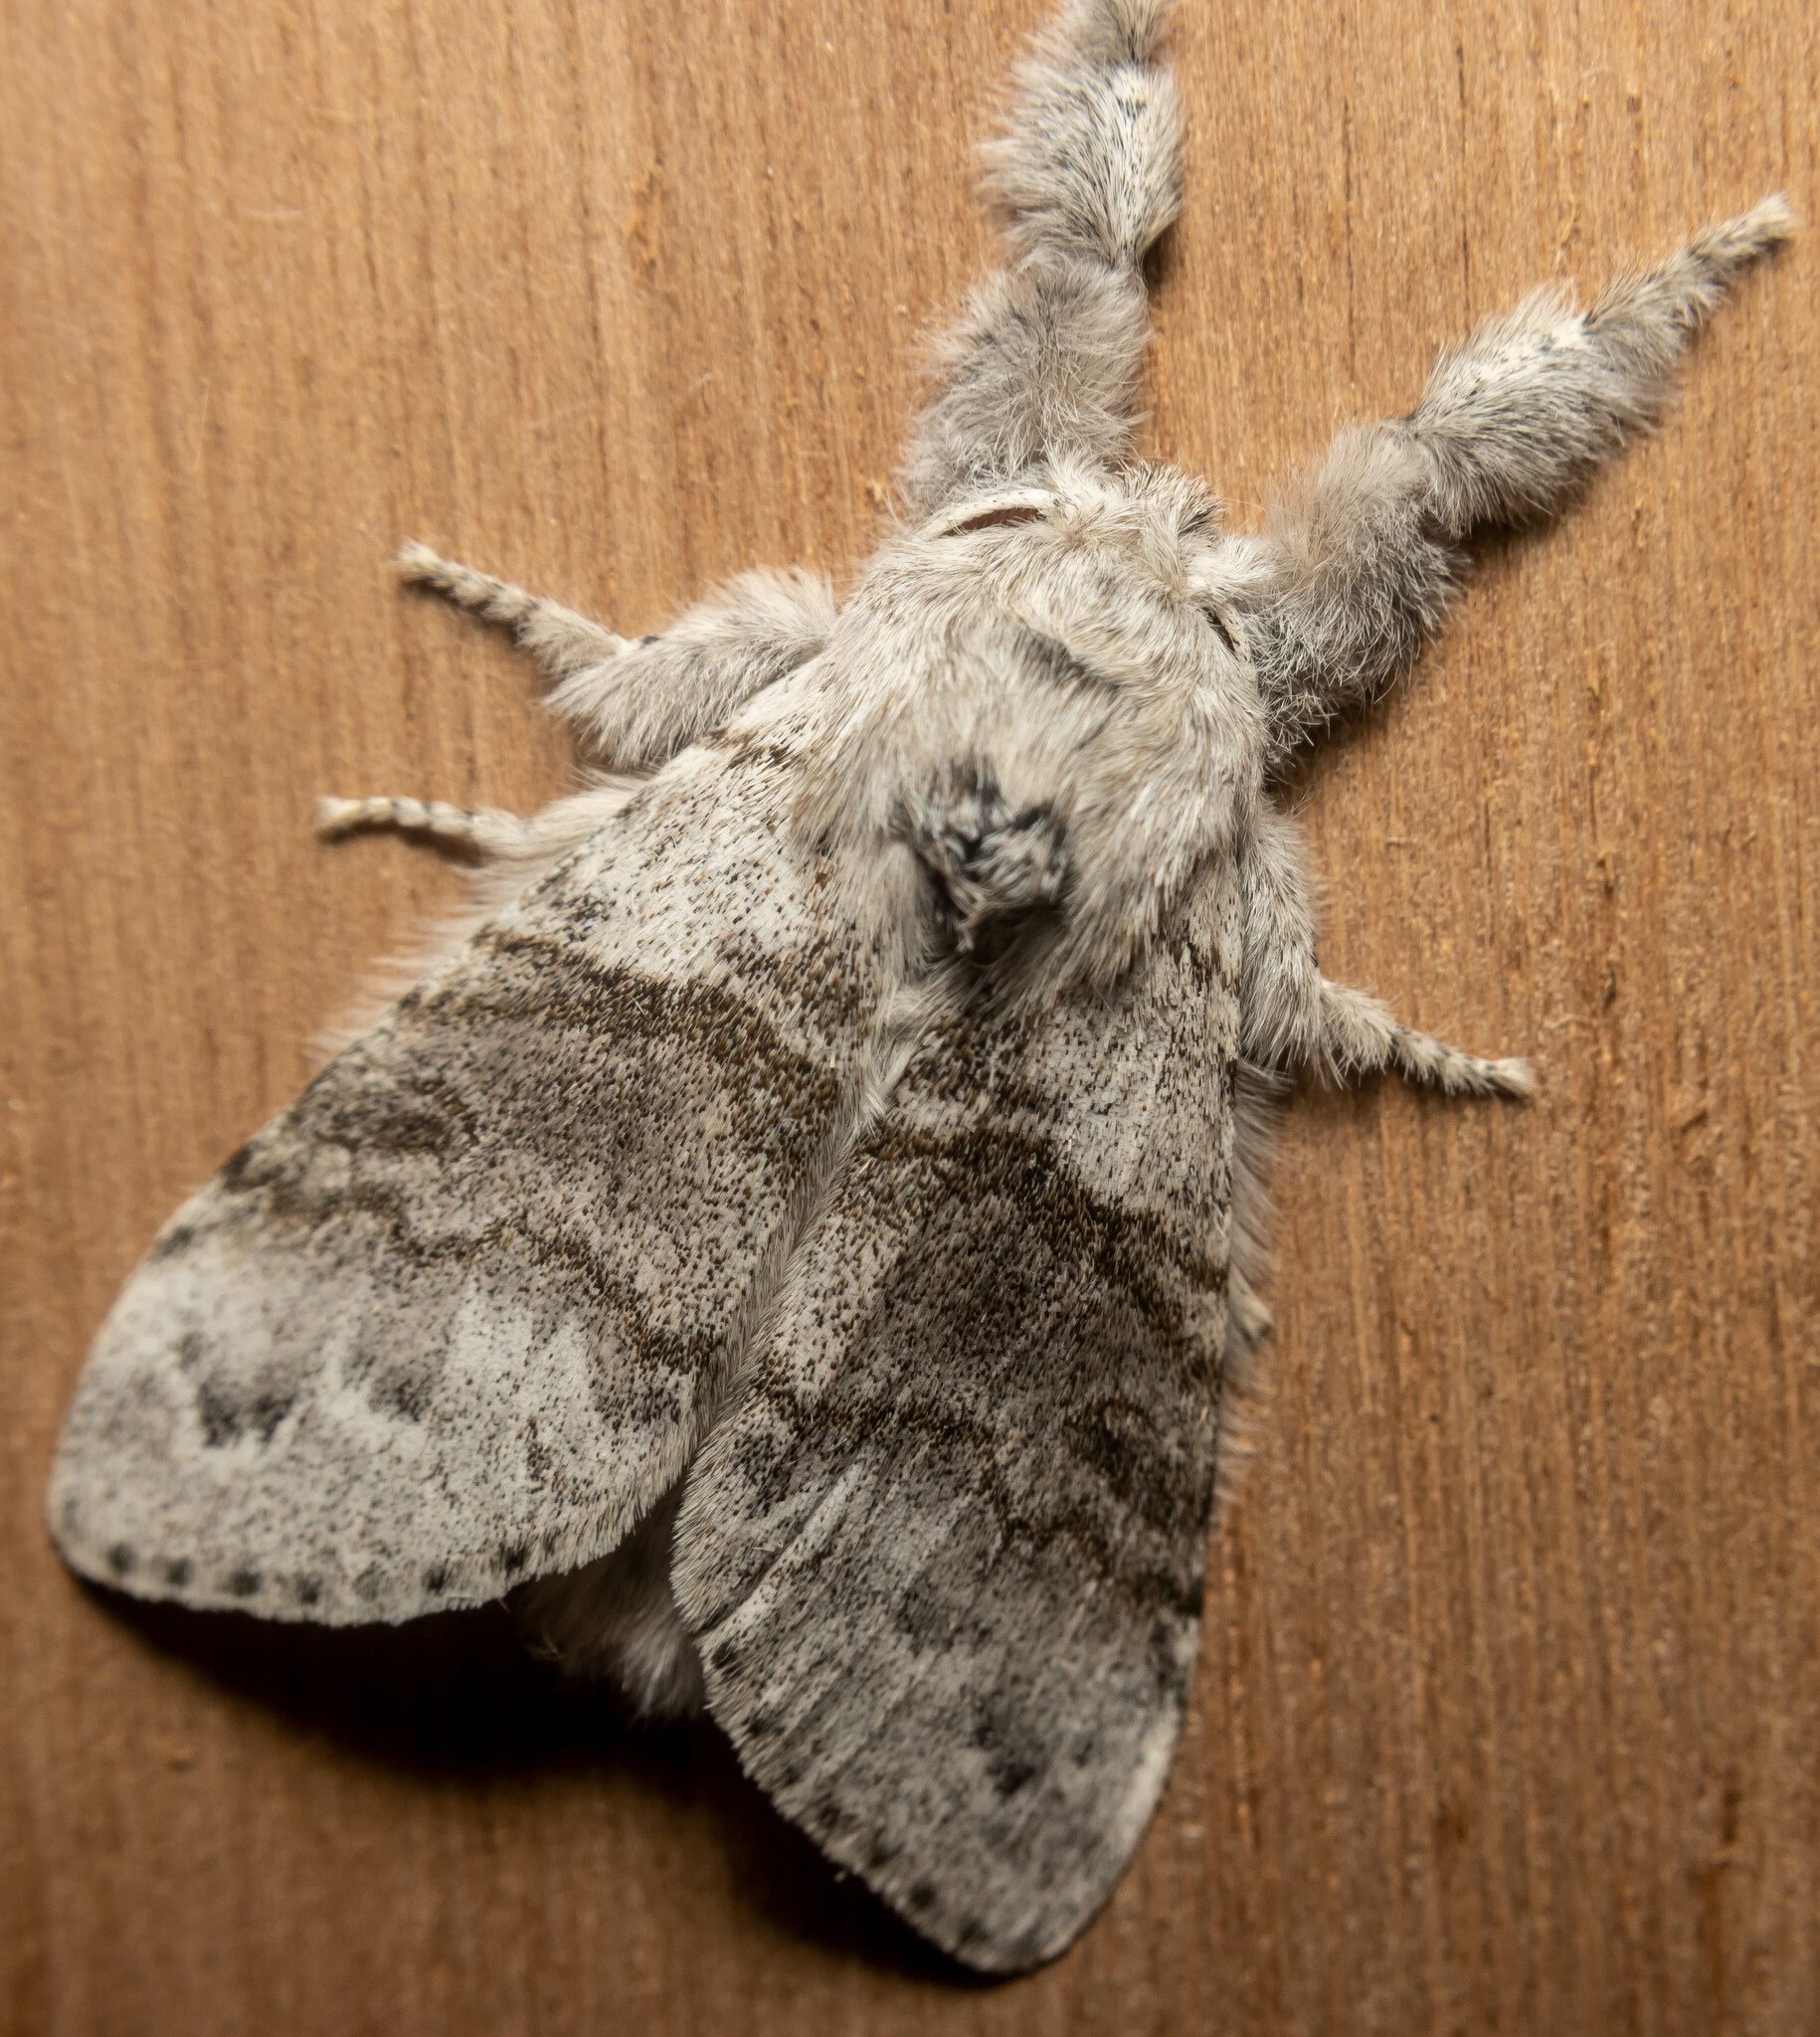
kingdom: Animalia
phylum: Arthropoda
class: Insecta
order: Lepidoptera
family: Erebidae
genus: Calliteara
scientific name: Calliteara pudibunda
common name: Pale tussock
